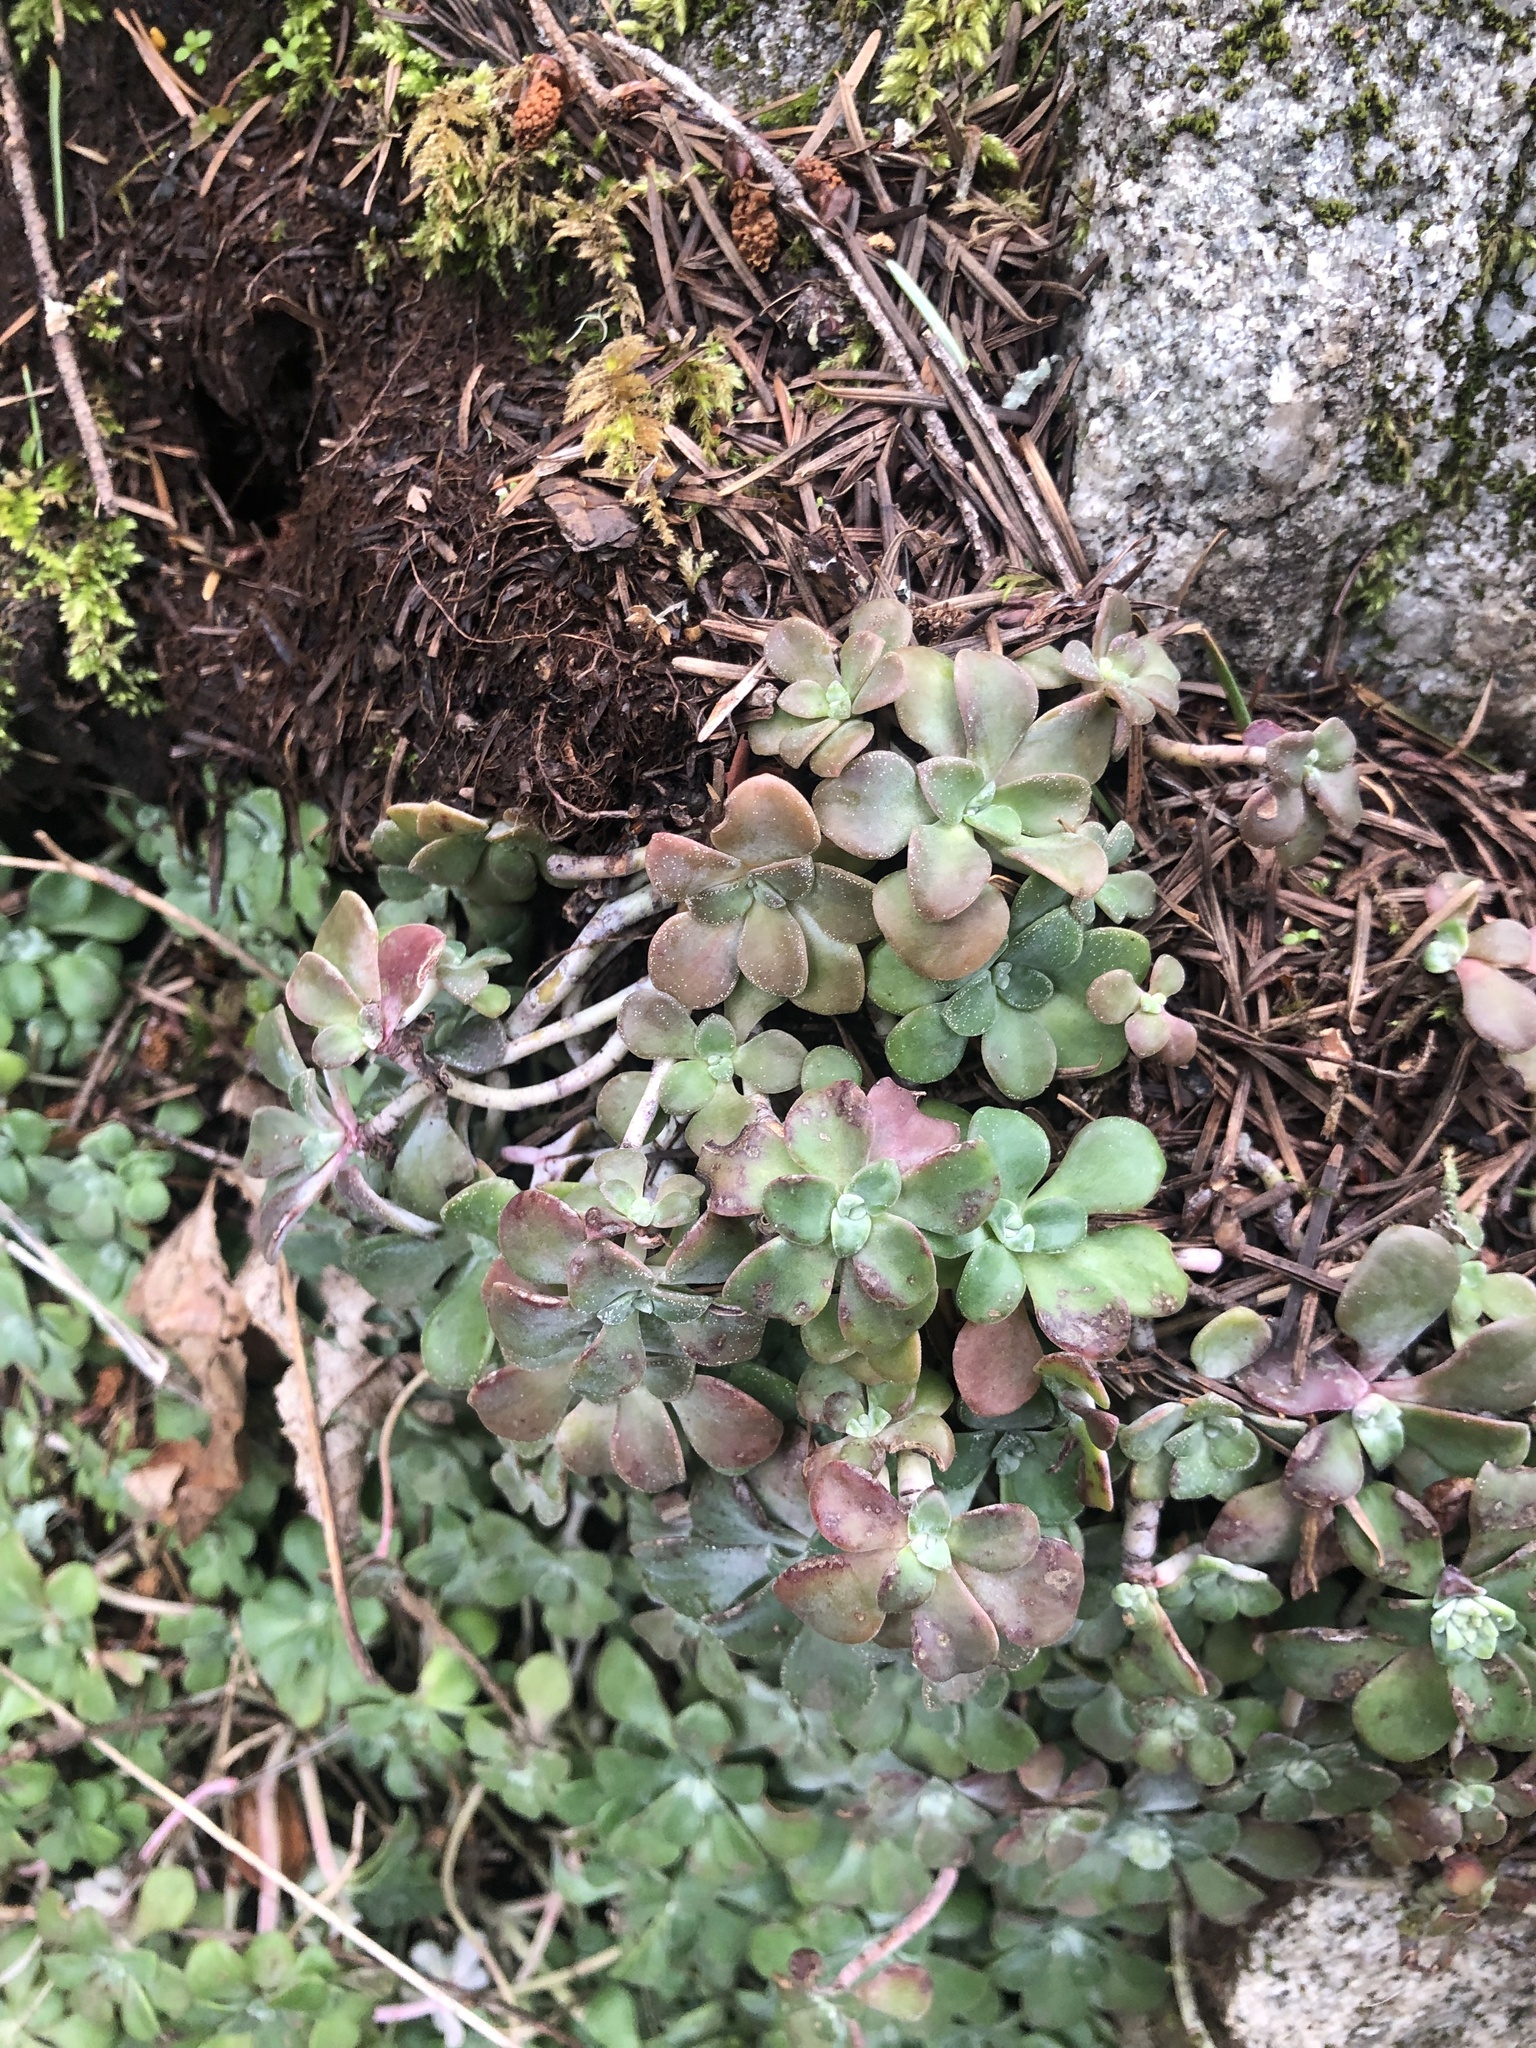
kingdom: Plantae
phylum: Tracheophyta
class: Magnoliopsida
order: Saxifragales
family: Crassulaceae
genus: Sedum
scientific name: Sedum spathulifolium
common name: Colorado stonecrop
